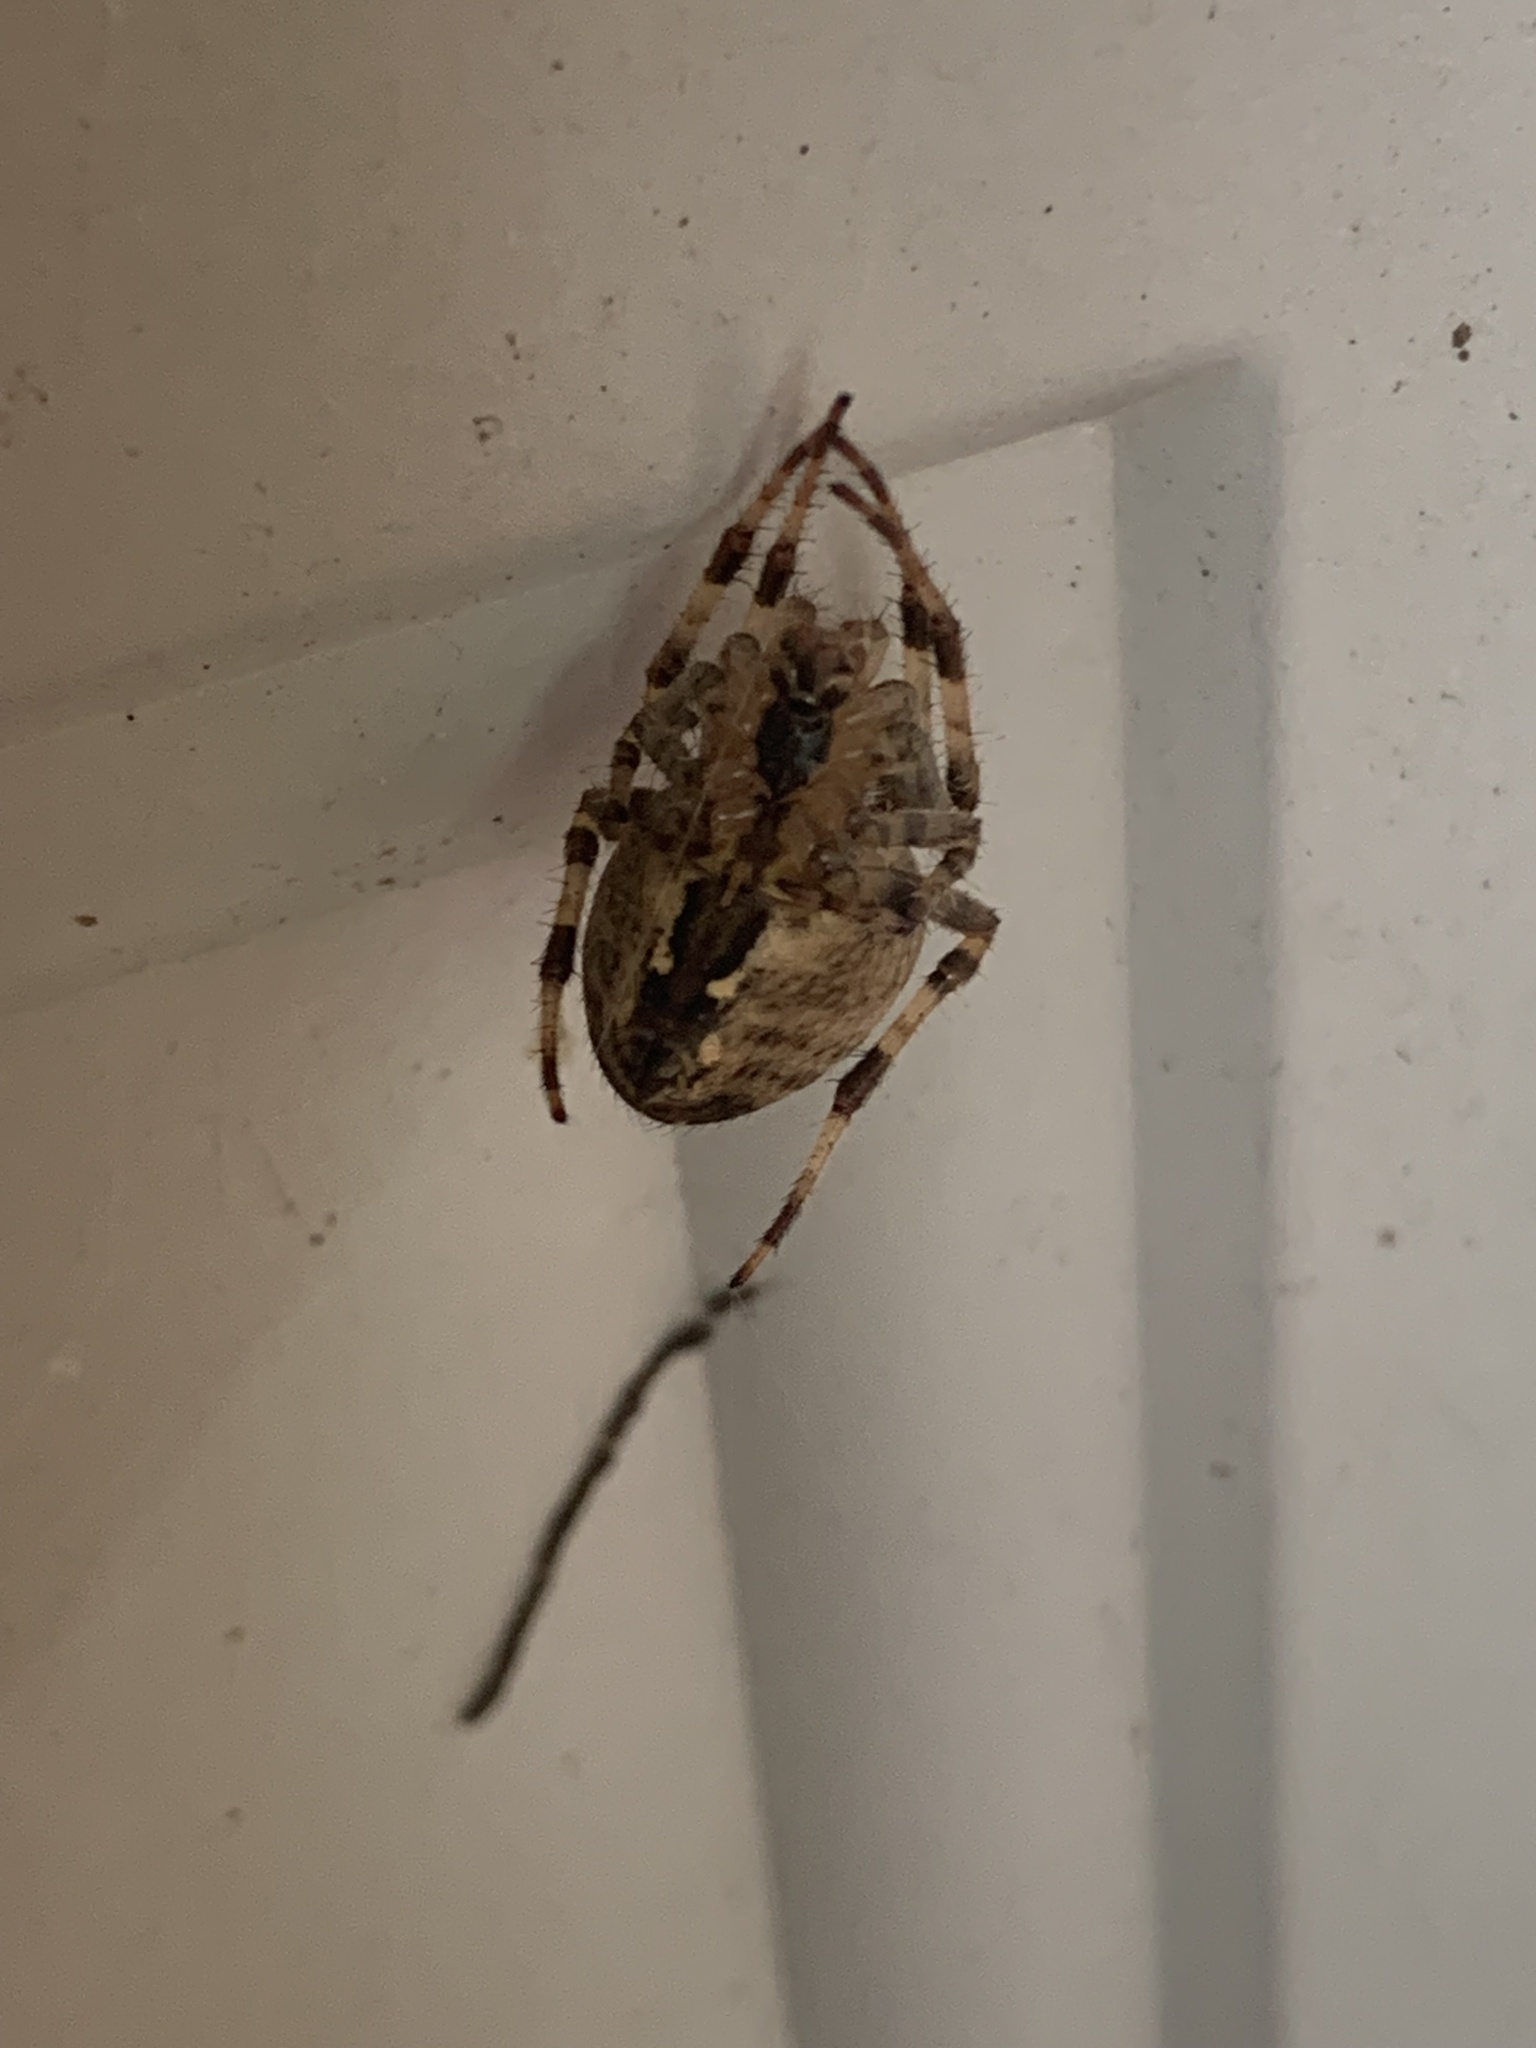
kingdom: Animalia
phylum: Arthropoda
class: Arachnida
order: Araneae
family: Araneidae
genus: Araneus
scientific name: Araneus diadematus
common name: Cross orbweaver
